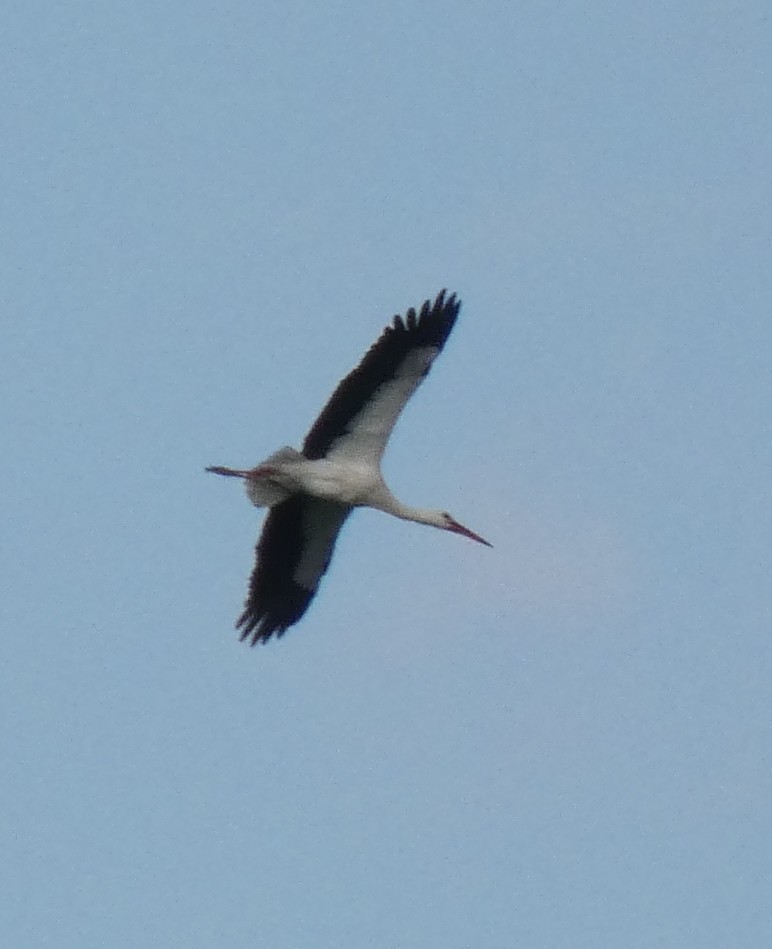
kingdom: Animalia
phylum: Chordata
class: Aves
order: Ciconiiformes
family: Ciconiidae
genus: Ciconia
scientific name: Ciconia ciconia
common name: White stork
